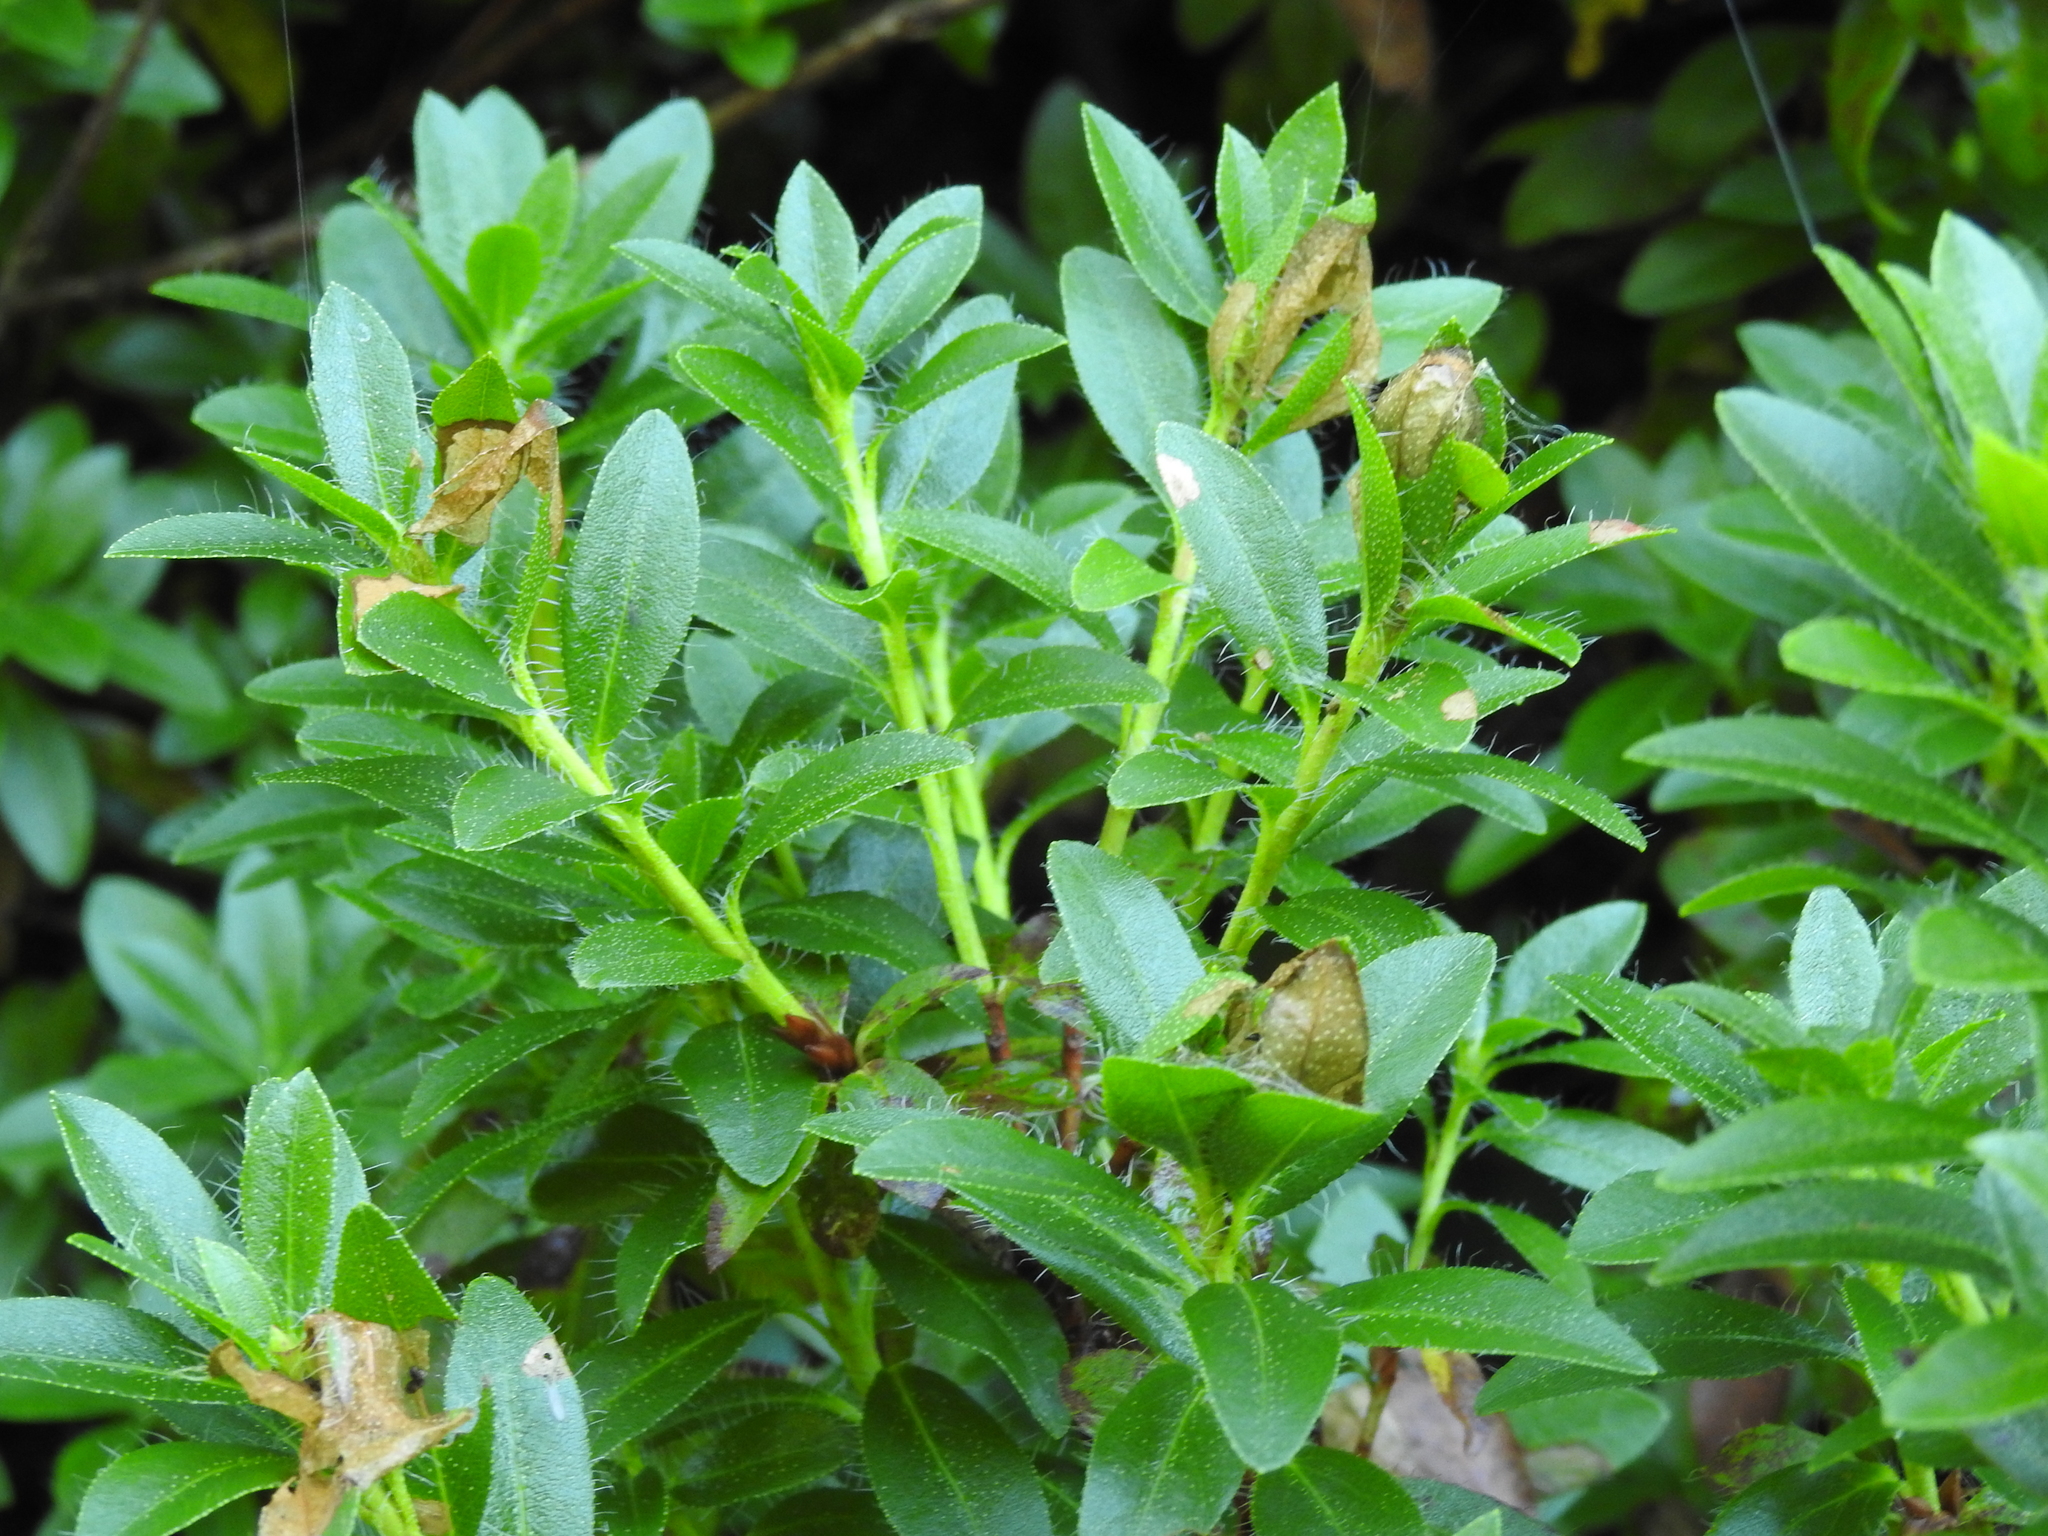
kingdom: Plantae
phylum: Tracheophyta
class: Magnoliopsida
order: Ericales
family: Ericaceae
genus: Rhododendron
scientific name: Rhododendron hirsutum
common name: Hairy alpenrose
